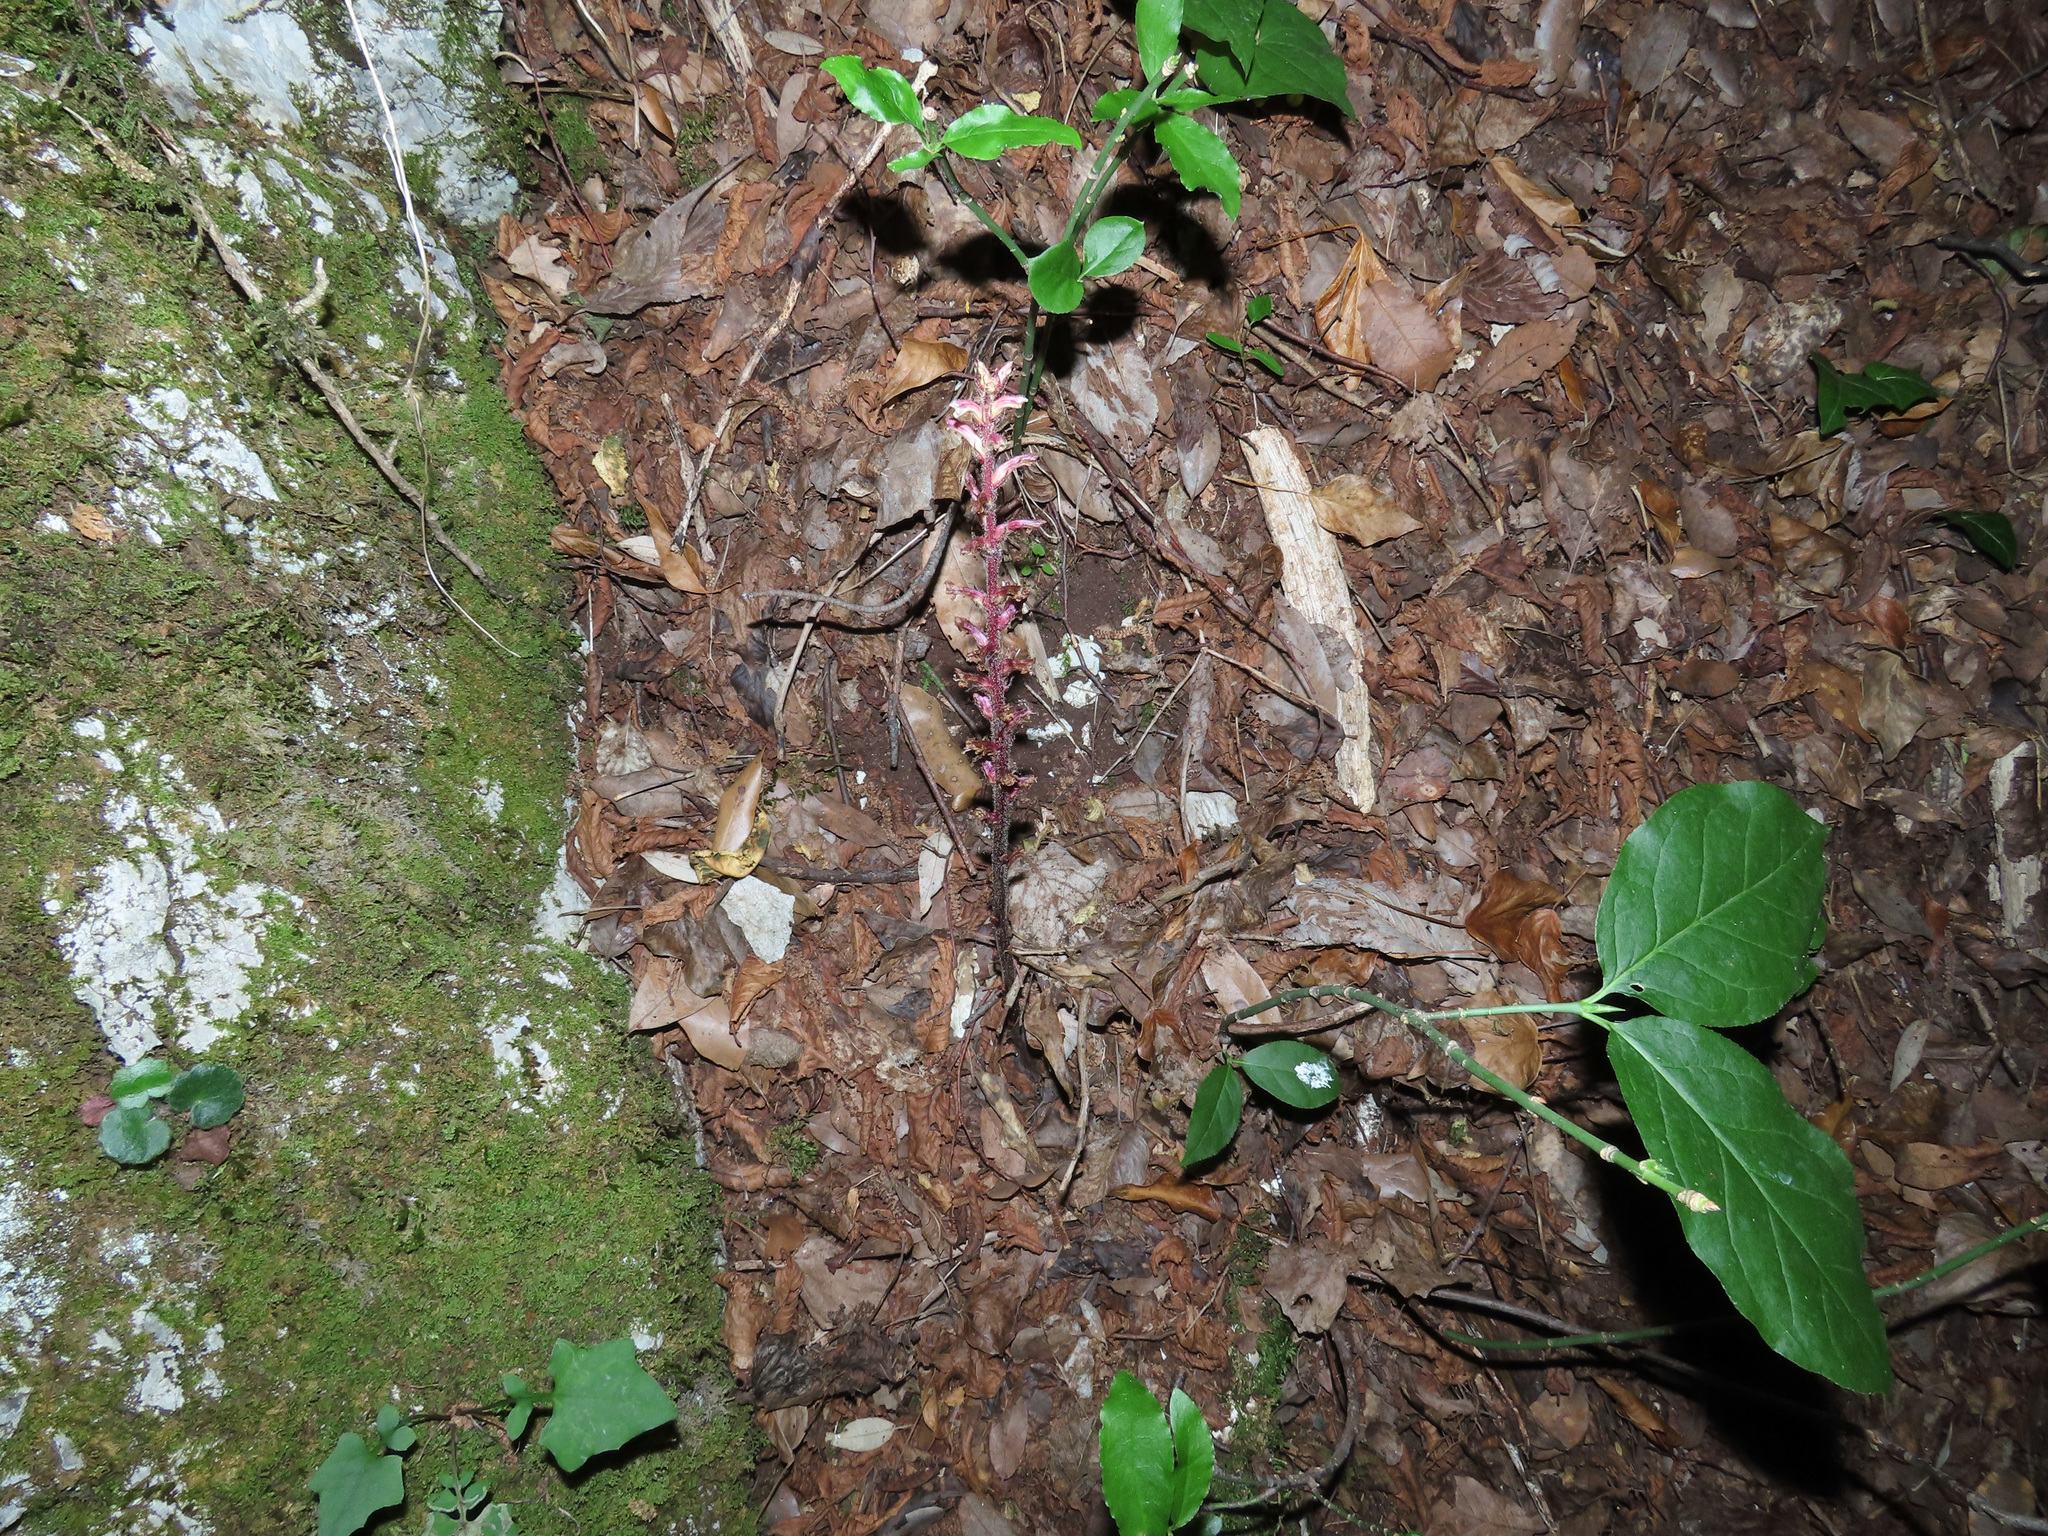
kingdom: Plantae
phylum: Tracheophyta
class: Magnoliopsida
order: Lamiales
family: Orobanchaceae
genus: Orobanche
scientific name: Orobanche hederae
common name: Ivy broomrape
